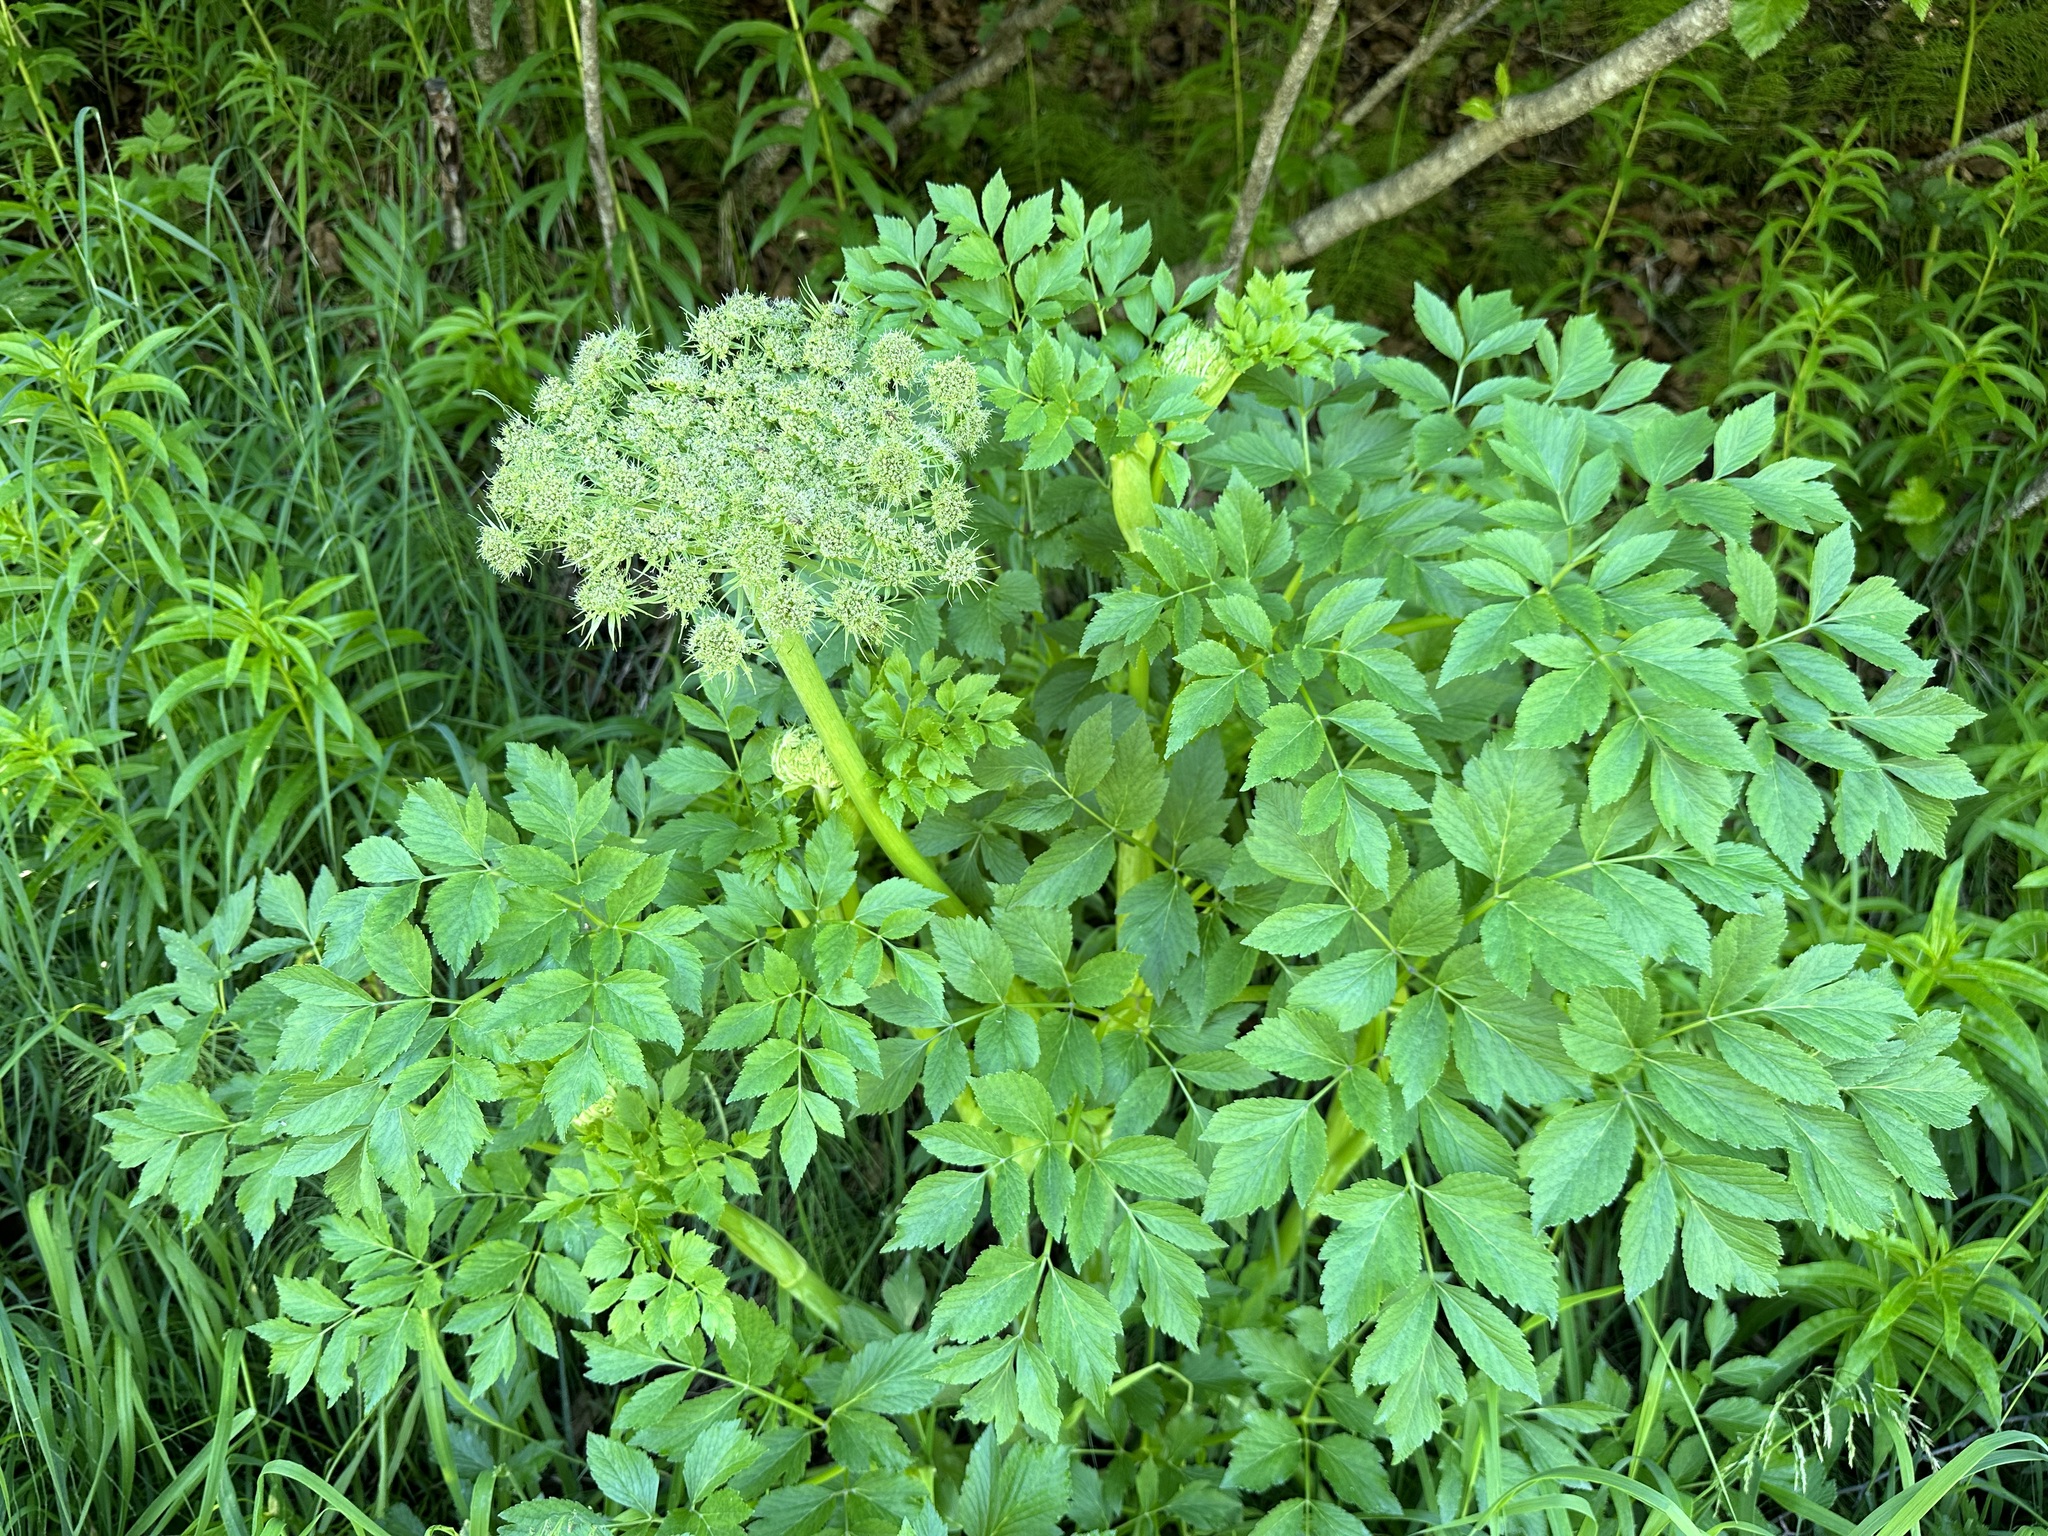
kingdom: Plantae
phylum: Tracheophyta
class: Magnoliopsida
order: Apiales
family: Apiaceae
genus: Angelica
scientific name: Angelica lucida
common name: Seabeach angelica
